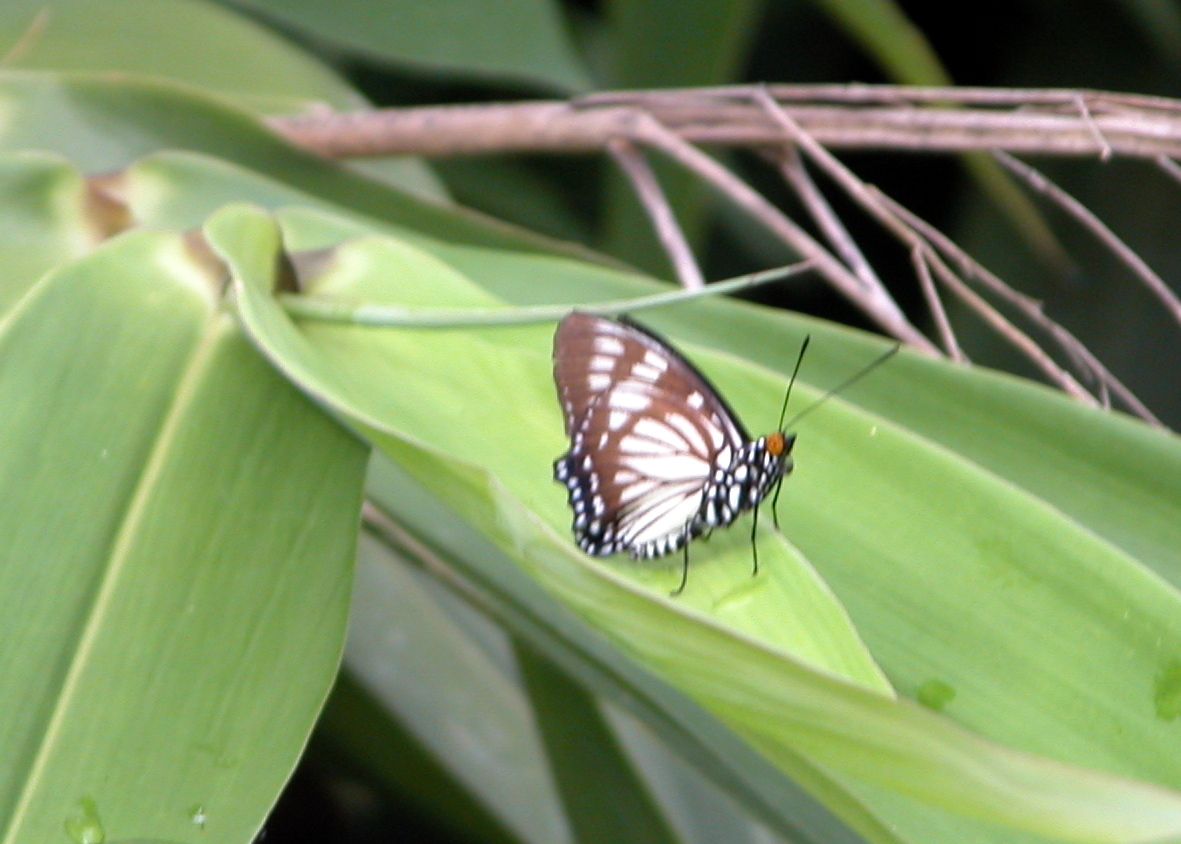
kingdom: Animalia
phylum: Arthropoda
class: Insecta
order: Lepidoptera
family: Nymphalidae
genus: Euripus
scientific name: Euripus nyctelius
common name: Courtesan
